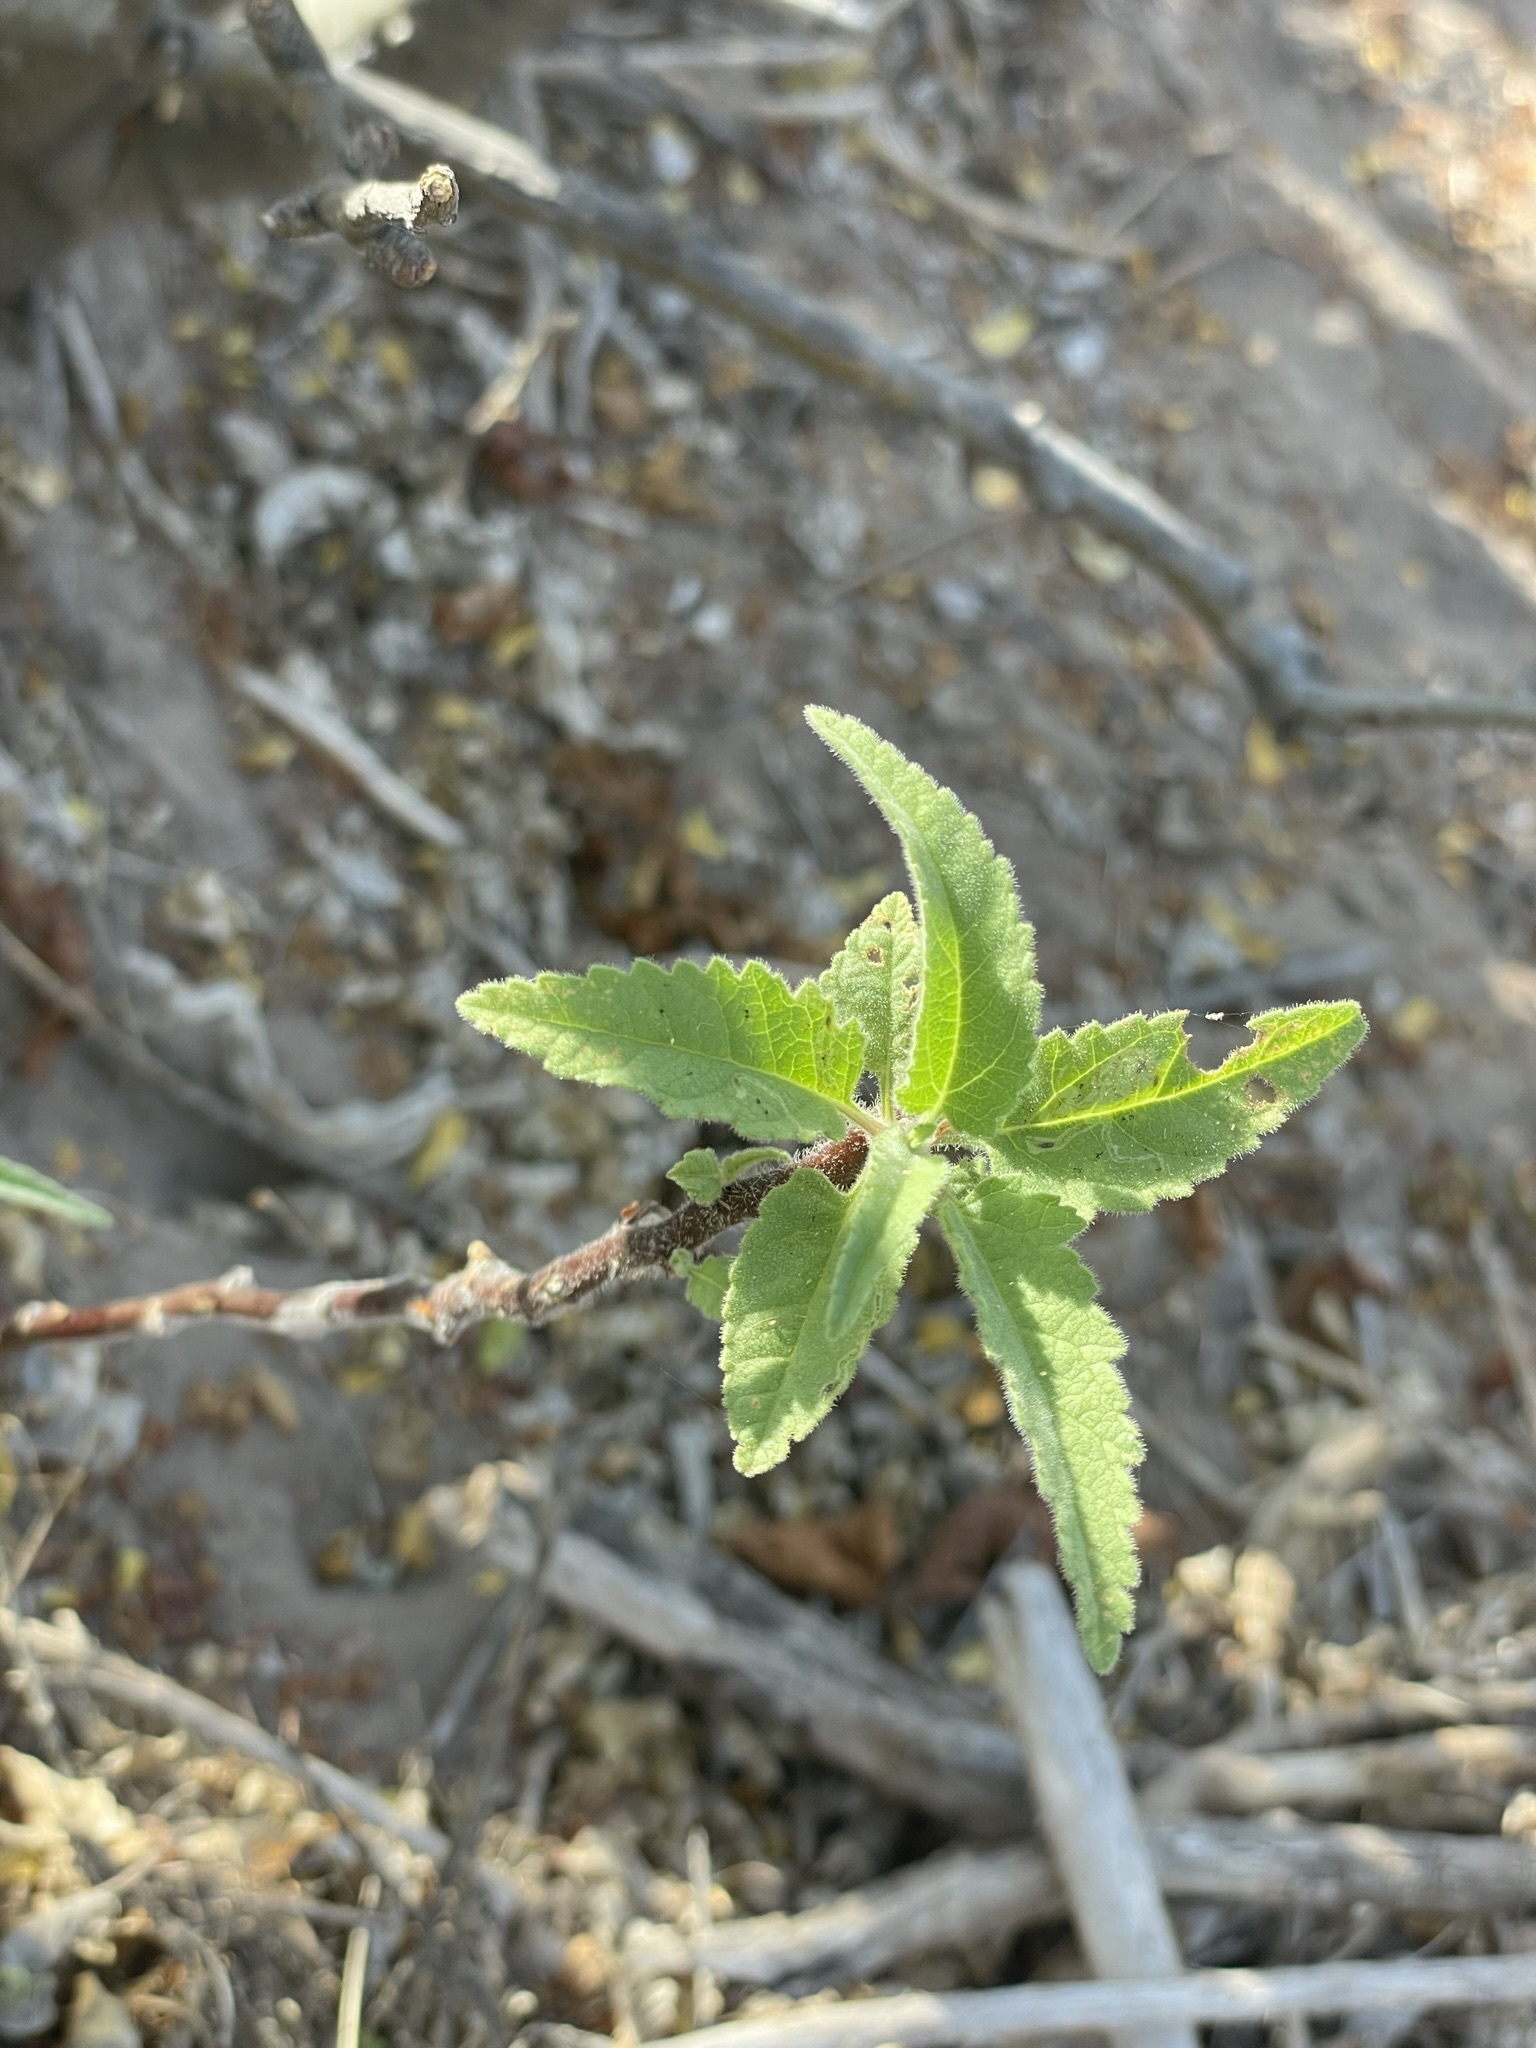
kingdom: Plantae
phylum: Tracheophyta
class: Magnoliopsida
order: Asterales
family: Asteraceae
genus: Ambrosia
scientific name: Ambrosia ambrosioides
